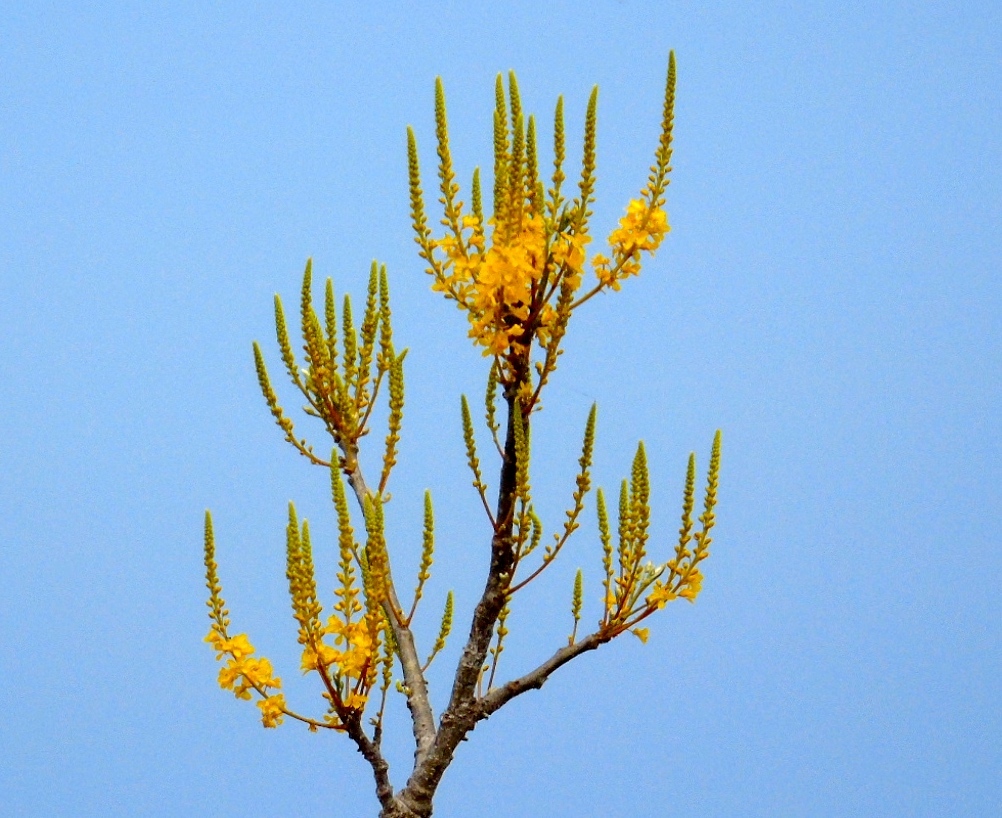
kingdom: Plantae
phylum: Tracheophyta
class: Magnoliopsida
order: Fabales
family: Fabaceae
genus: Conzattia
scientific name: Conzattia sericea
